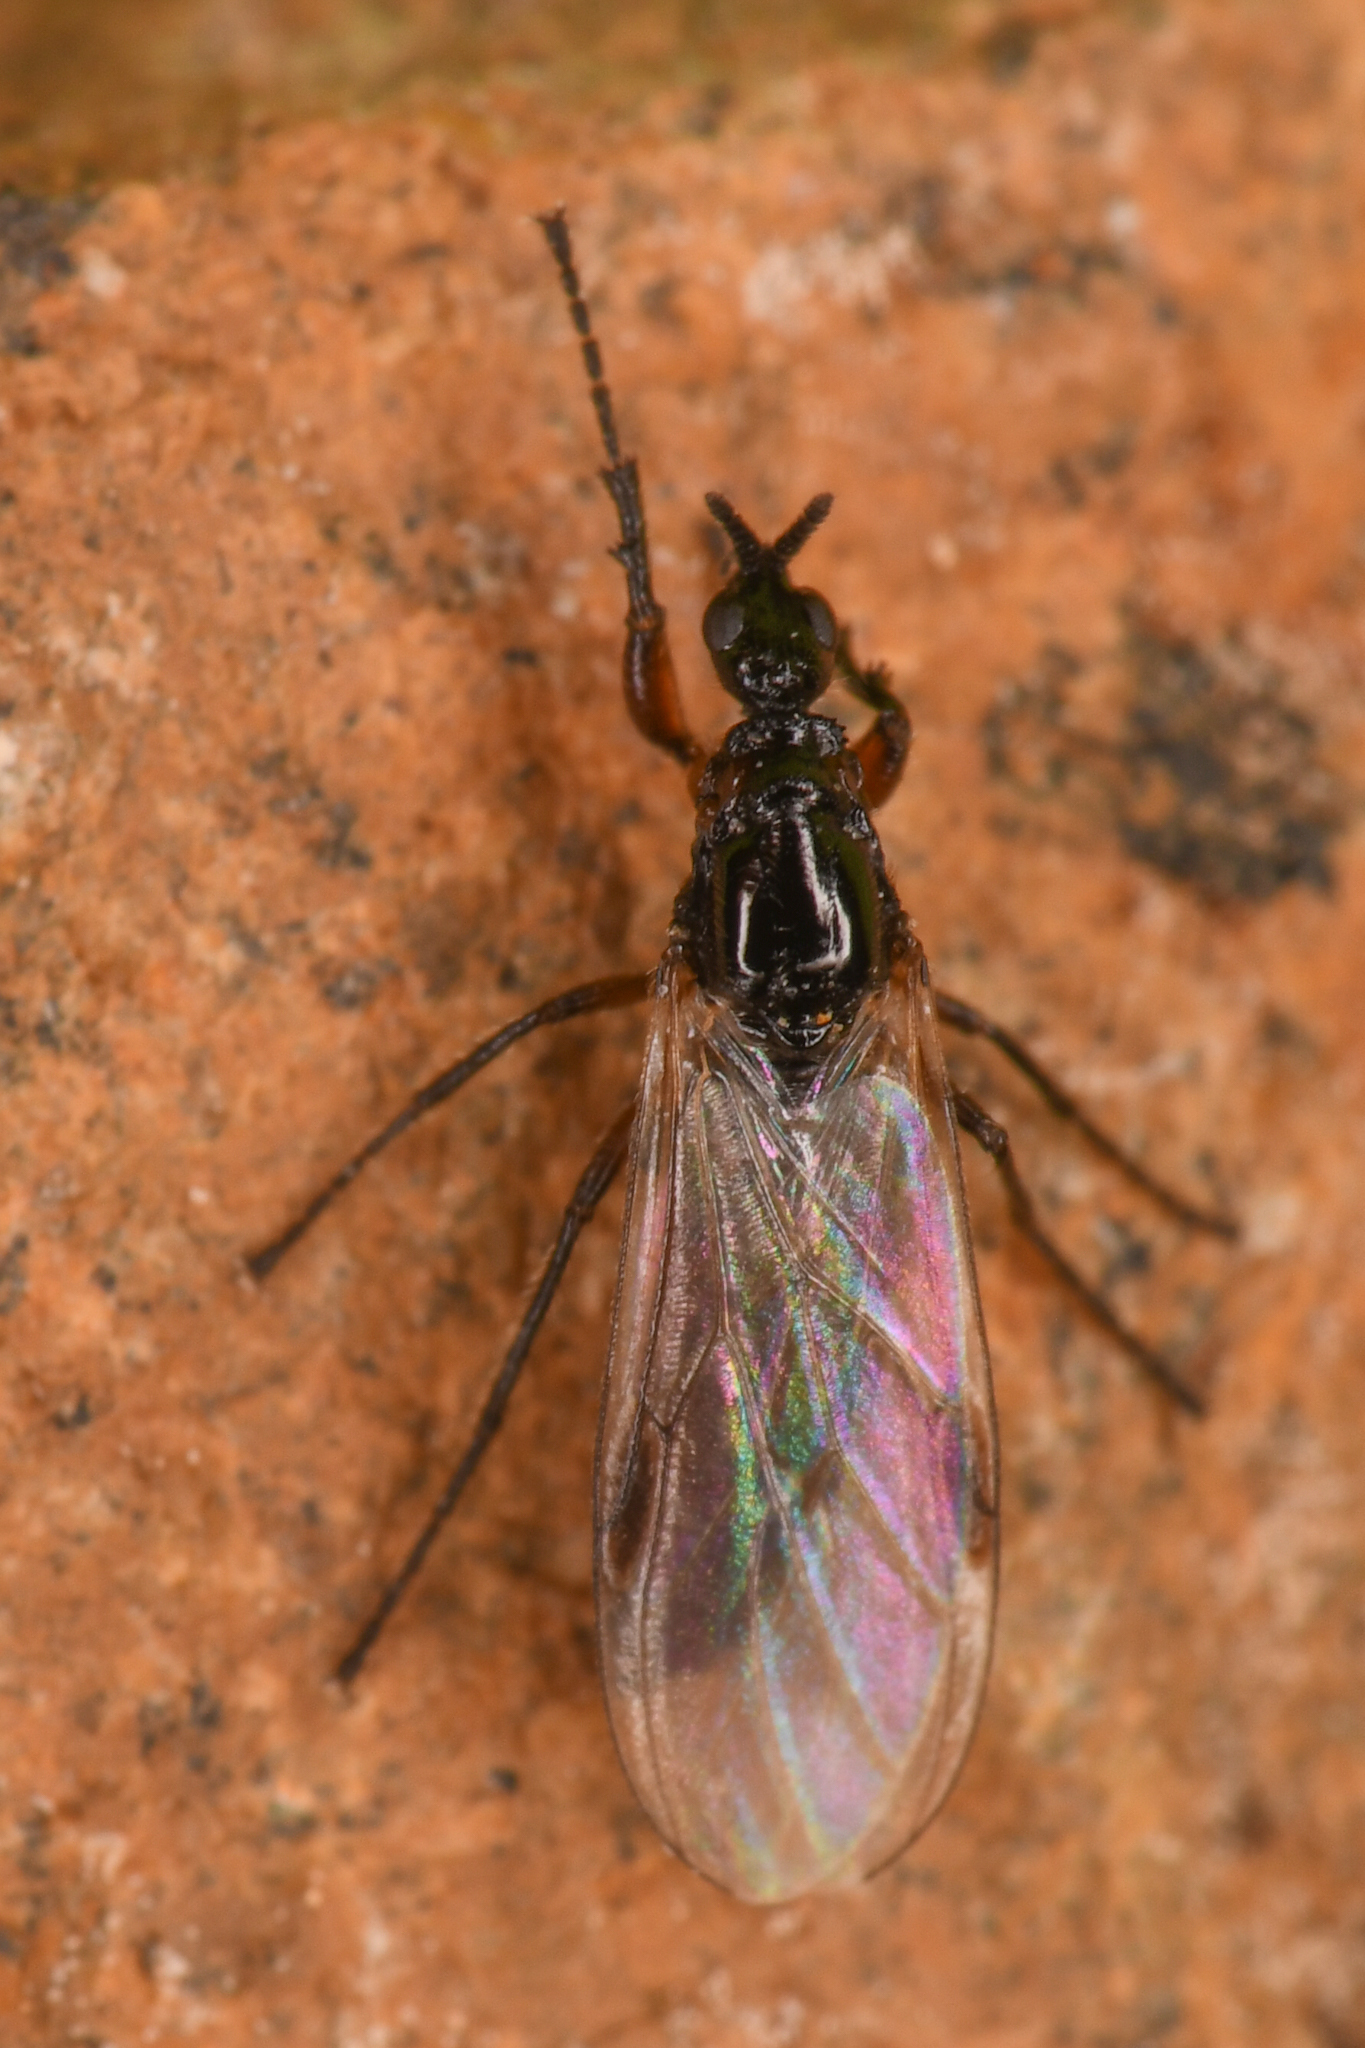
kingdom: Animalia
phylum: Arthropoda
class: Insecta
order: Diptera
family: Bibionidae
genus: Dilophus
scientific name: Dilophus
